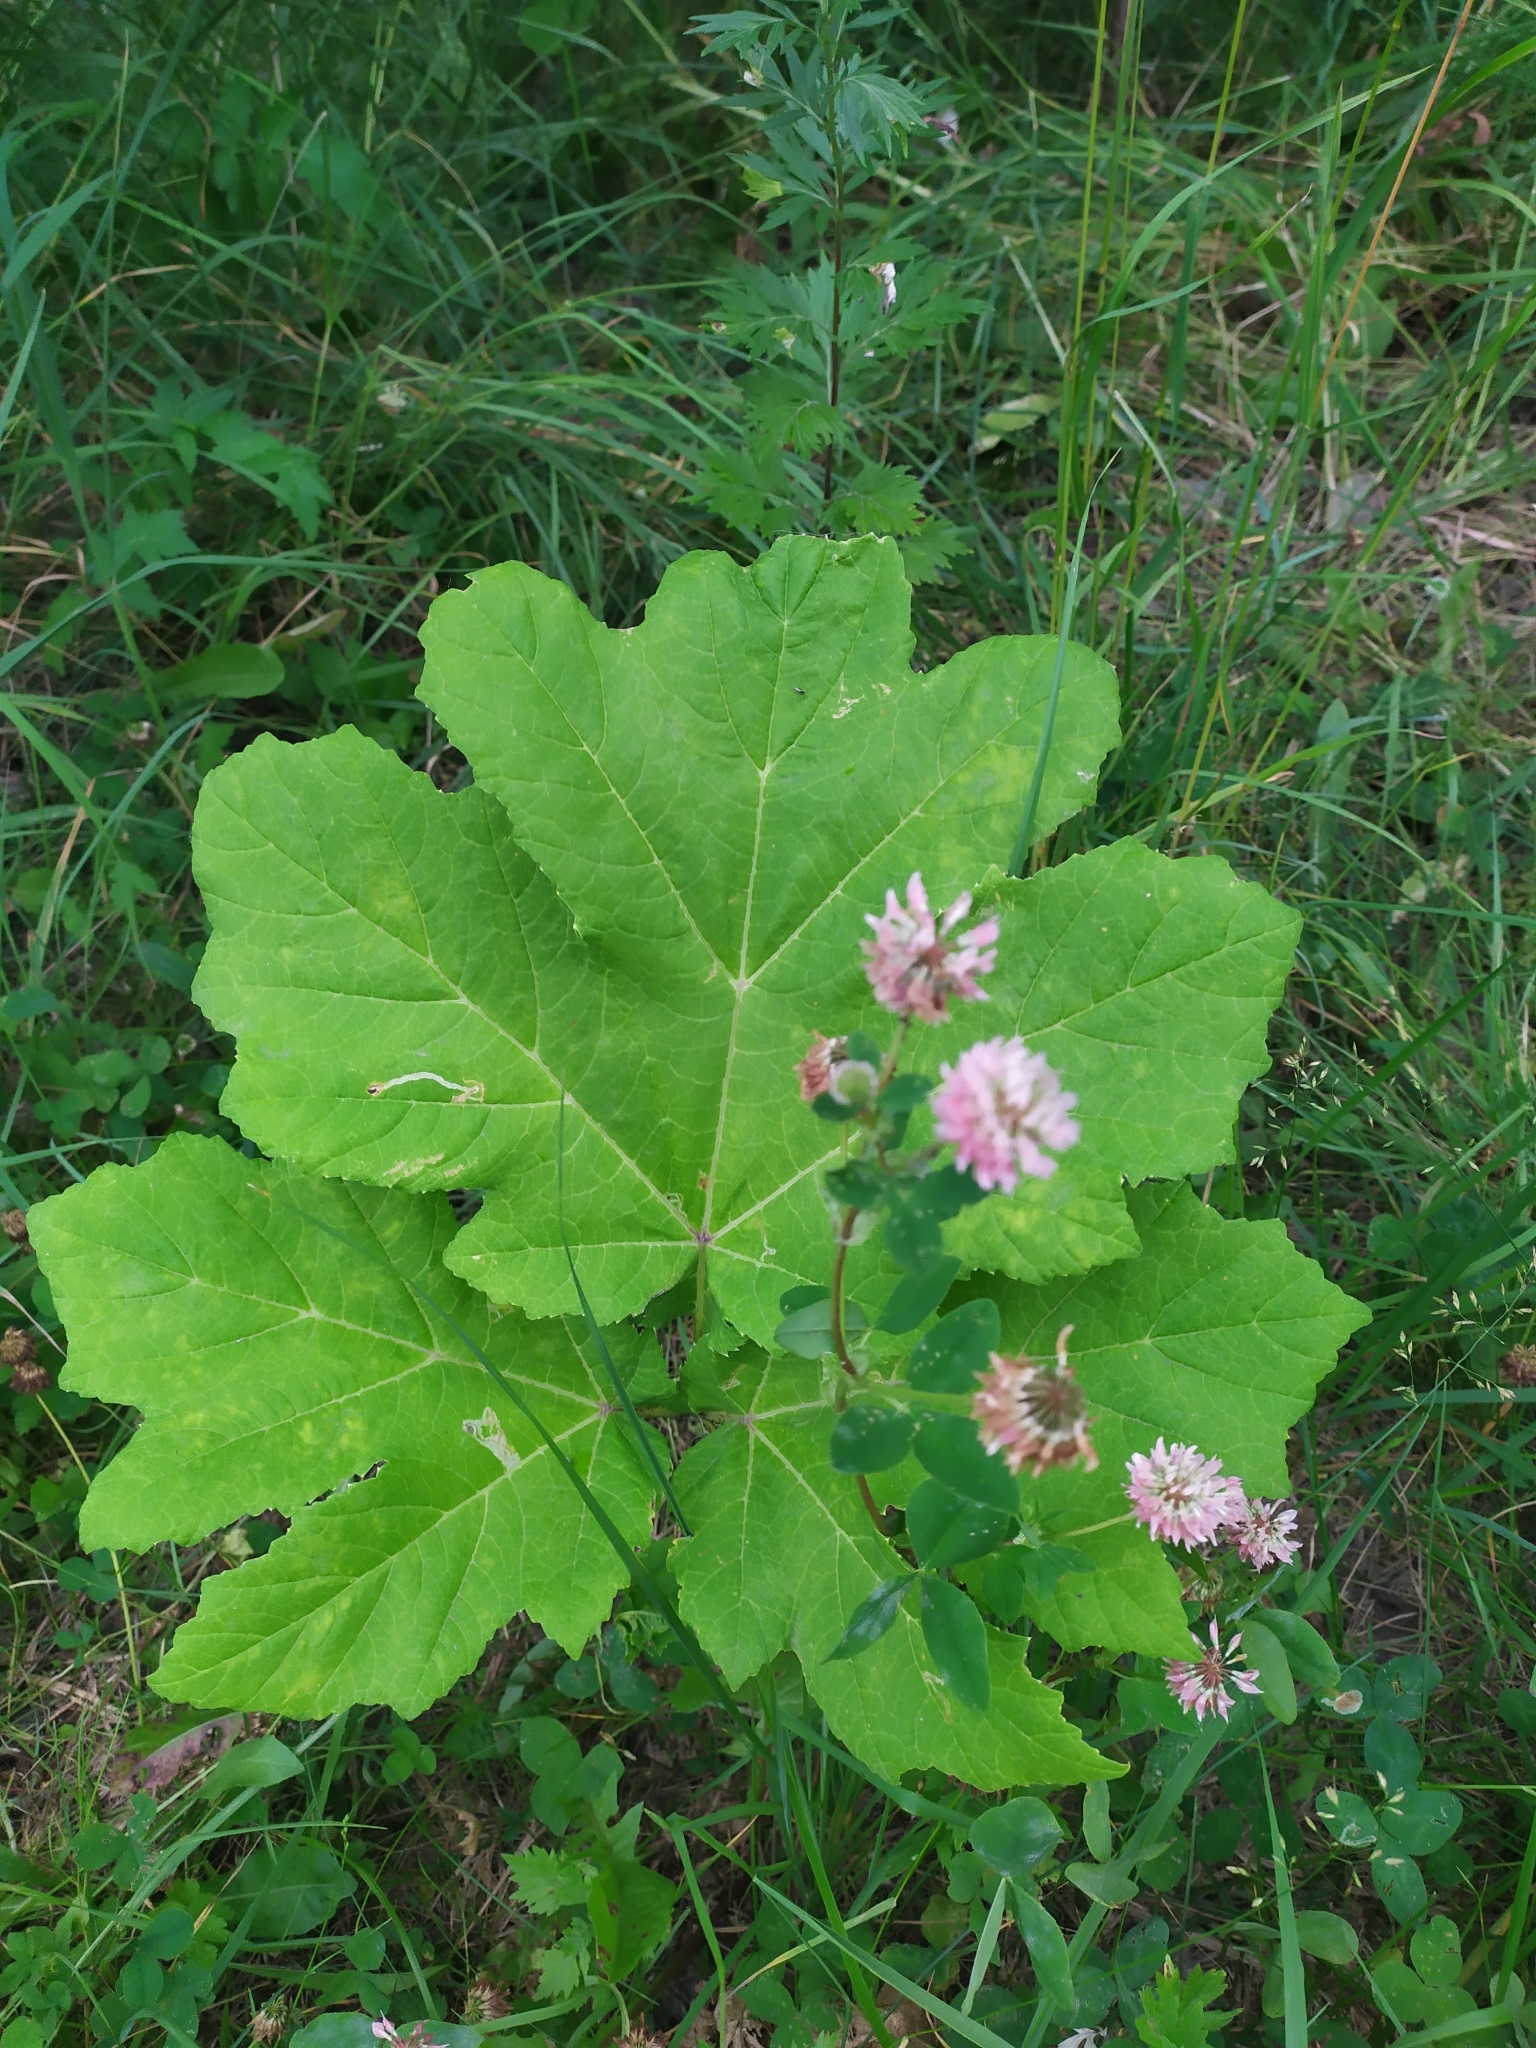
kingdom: Plantae
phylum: Tracheophyta
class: Magnoliopsida
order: Apiales
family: Apiaceae
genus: Heracleum
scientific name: Heracleum sosnowskyi
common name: Sosnowsky's hogweed
